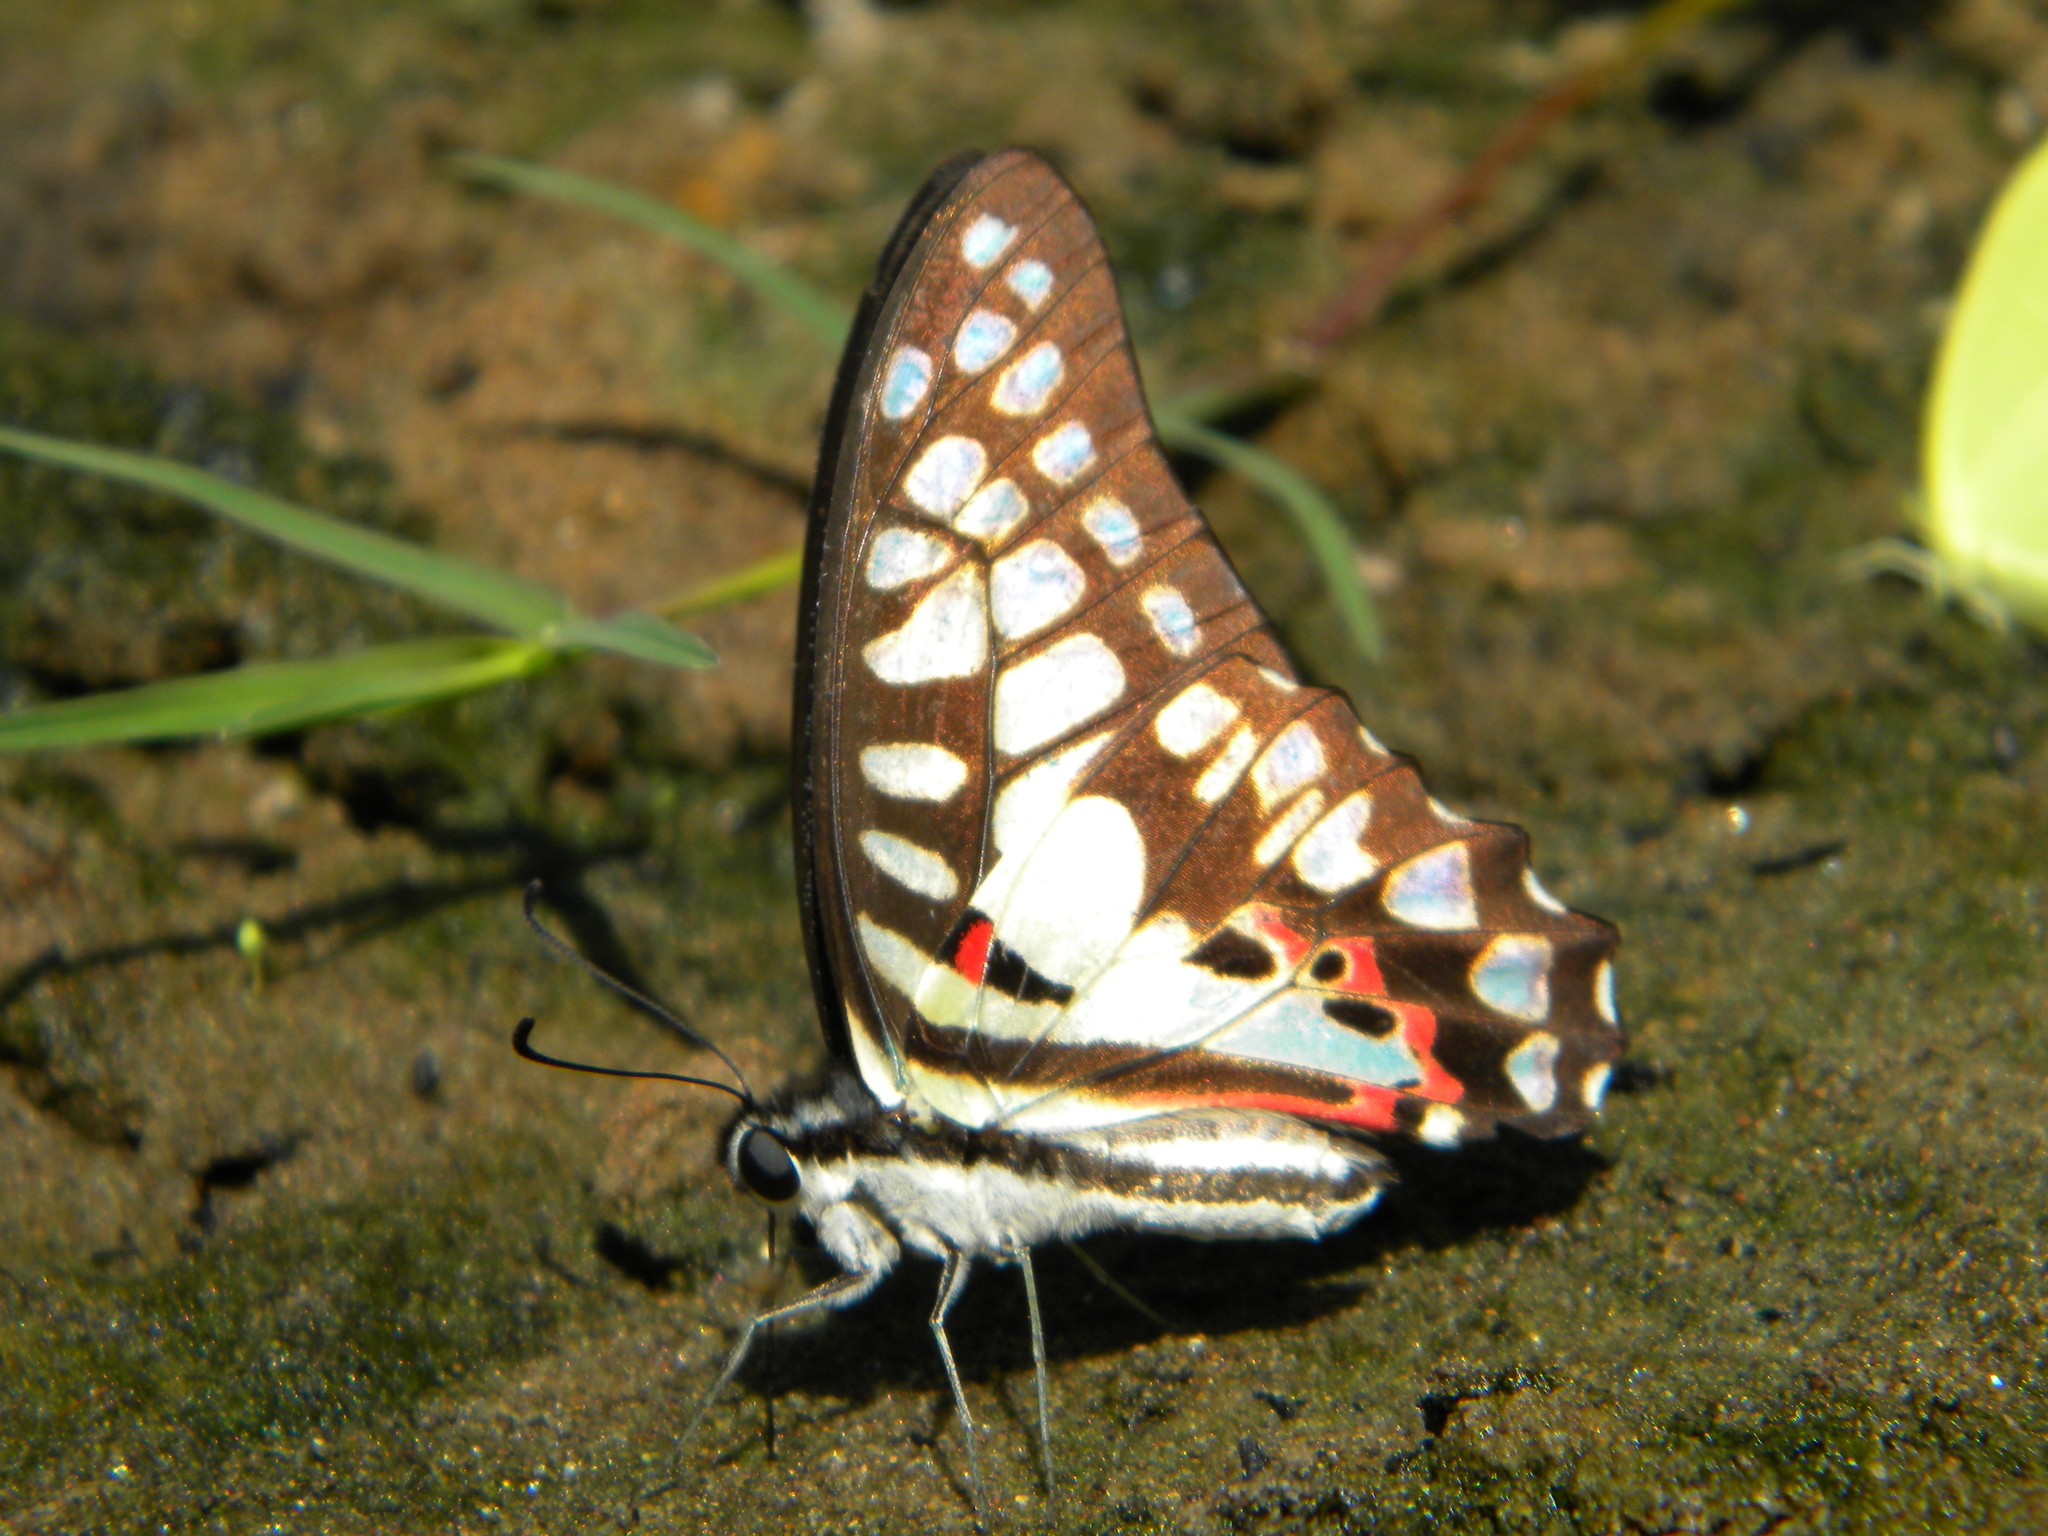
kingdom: Animalia
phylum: Arthropoda
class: Insecta
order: Lepidoptera
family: Papilionidae
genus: Graphium
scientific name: Graphium doson
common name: Common jay
